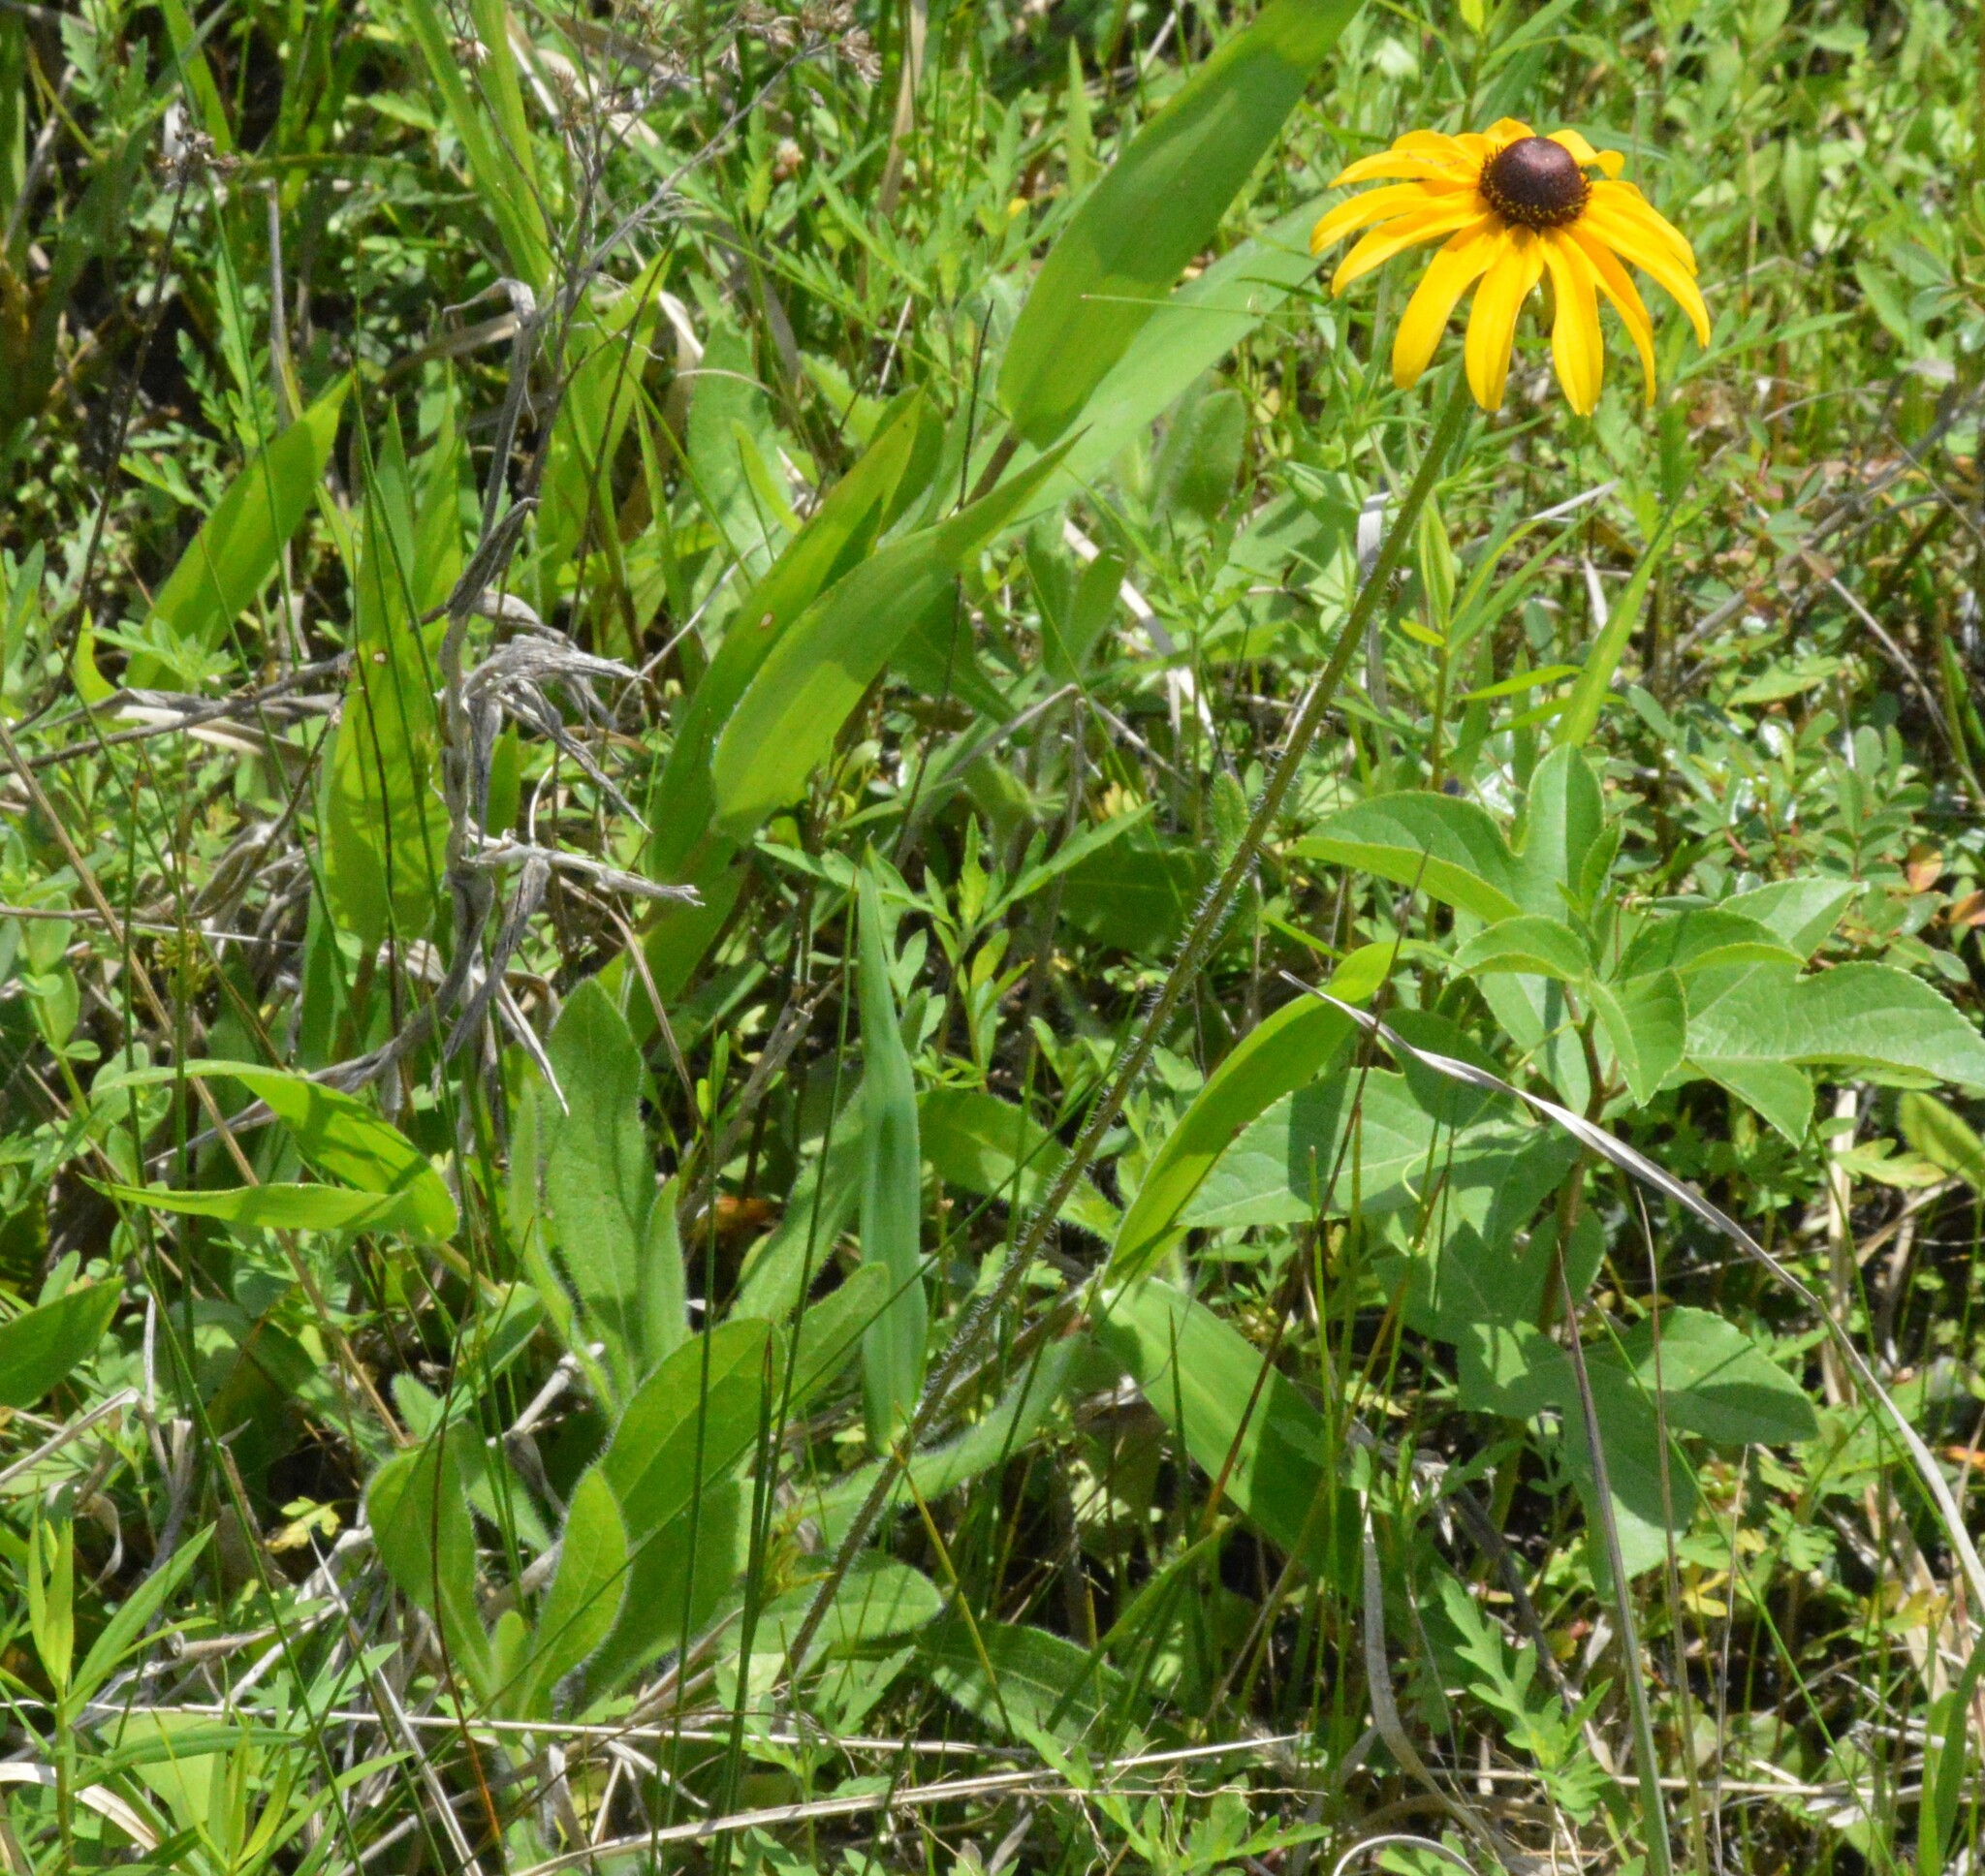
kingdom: Plantae
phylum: Tracheophyta
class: Magnoliopsida
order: Asterales
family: Asteraceae
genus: Rudbeckia
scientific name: Rudbeckia hirta
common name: Black-eyed-susan
